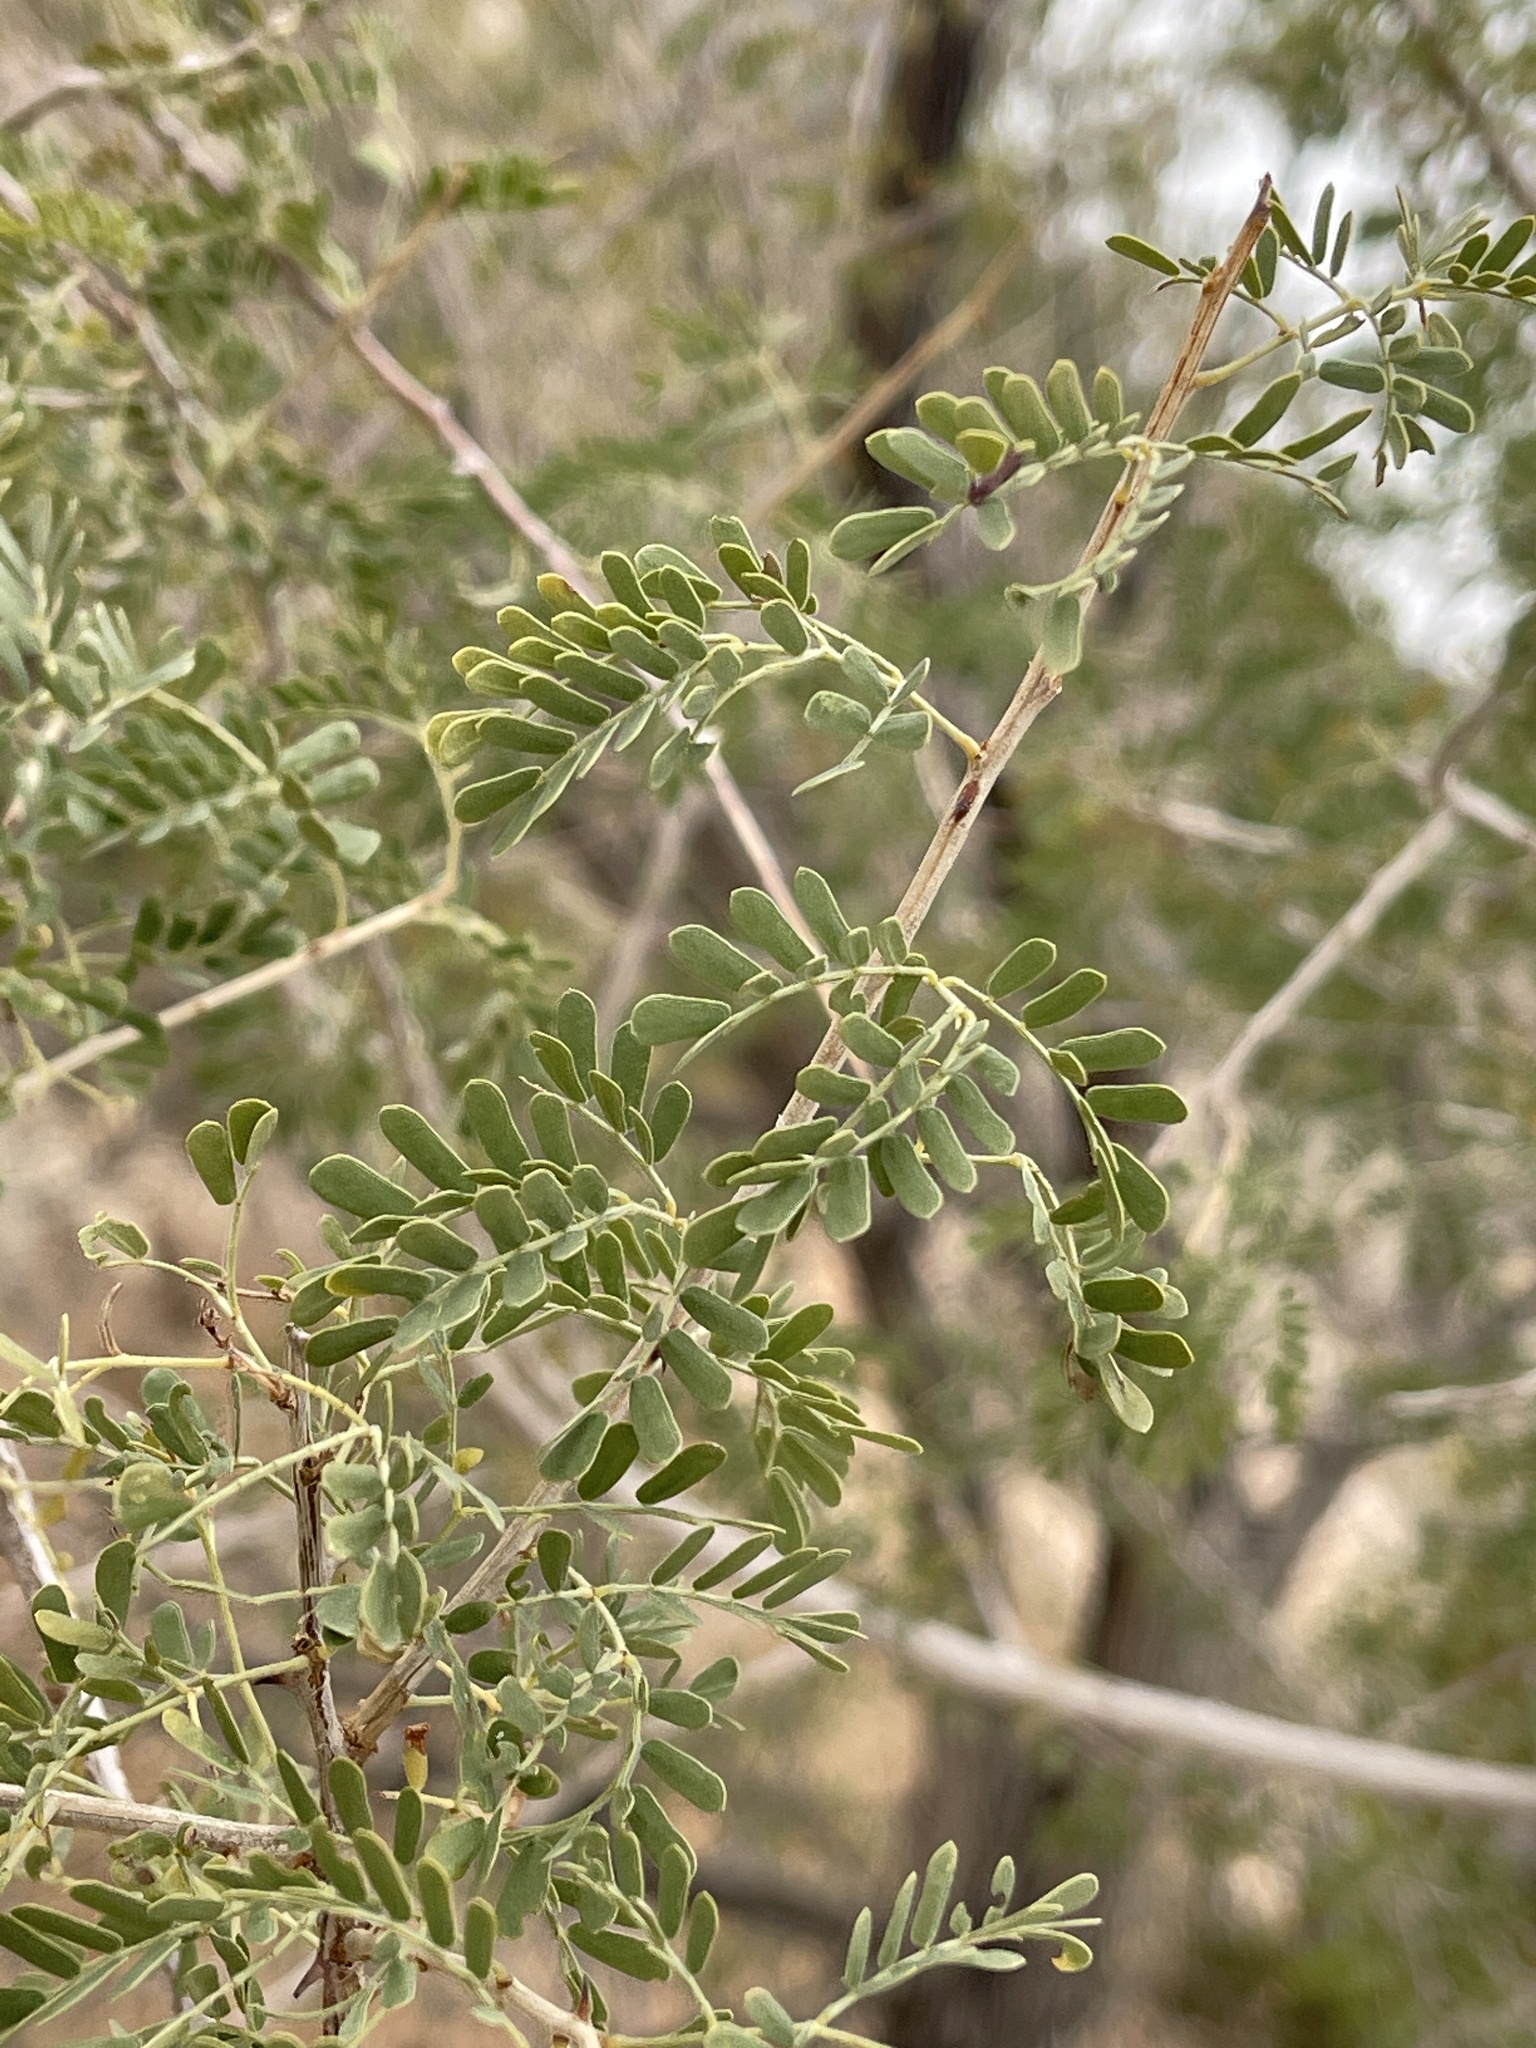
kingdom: Plantae
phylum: Tracheophyta
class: Magnoliopsida
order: Fabales
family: Fabaceae
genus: Senegalia
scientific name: Senegalia greggii
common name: Texas-mimosa
